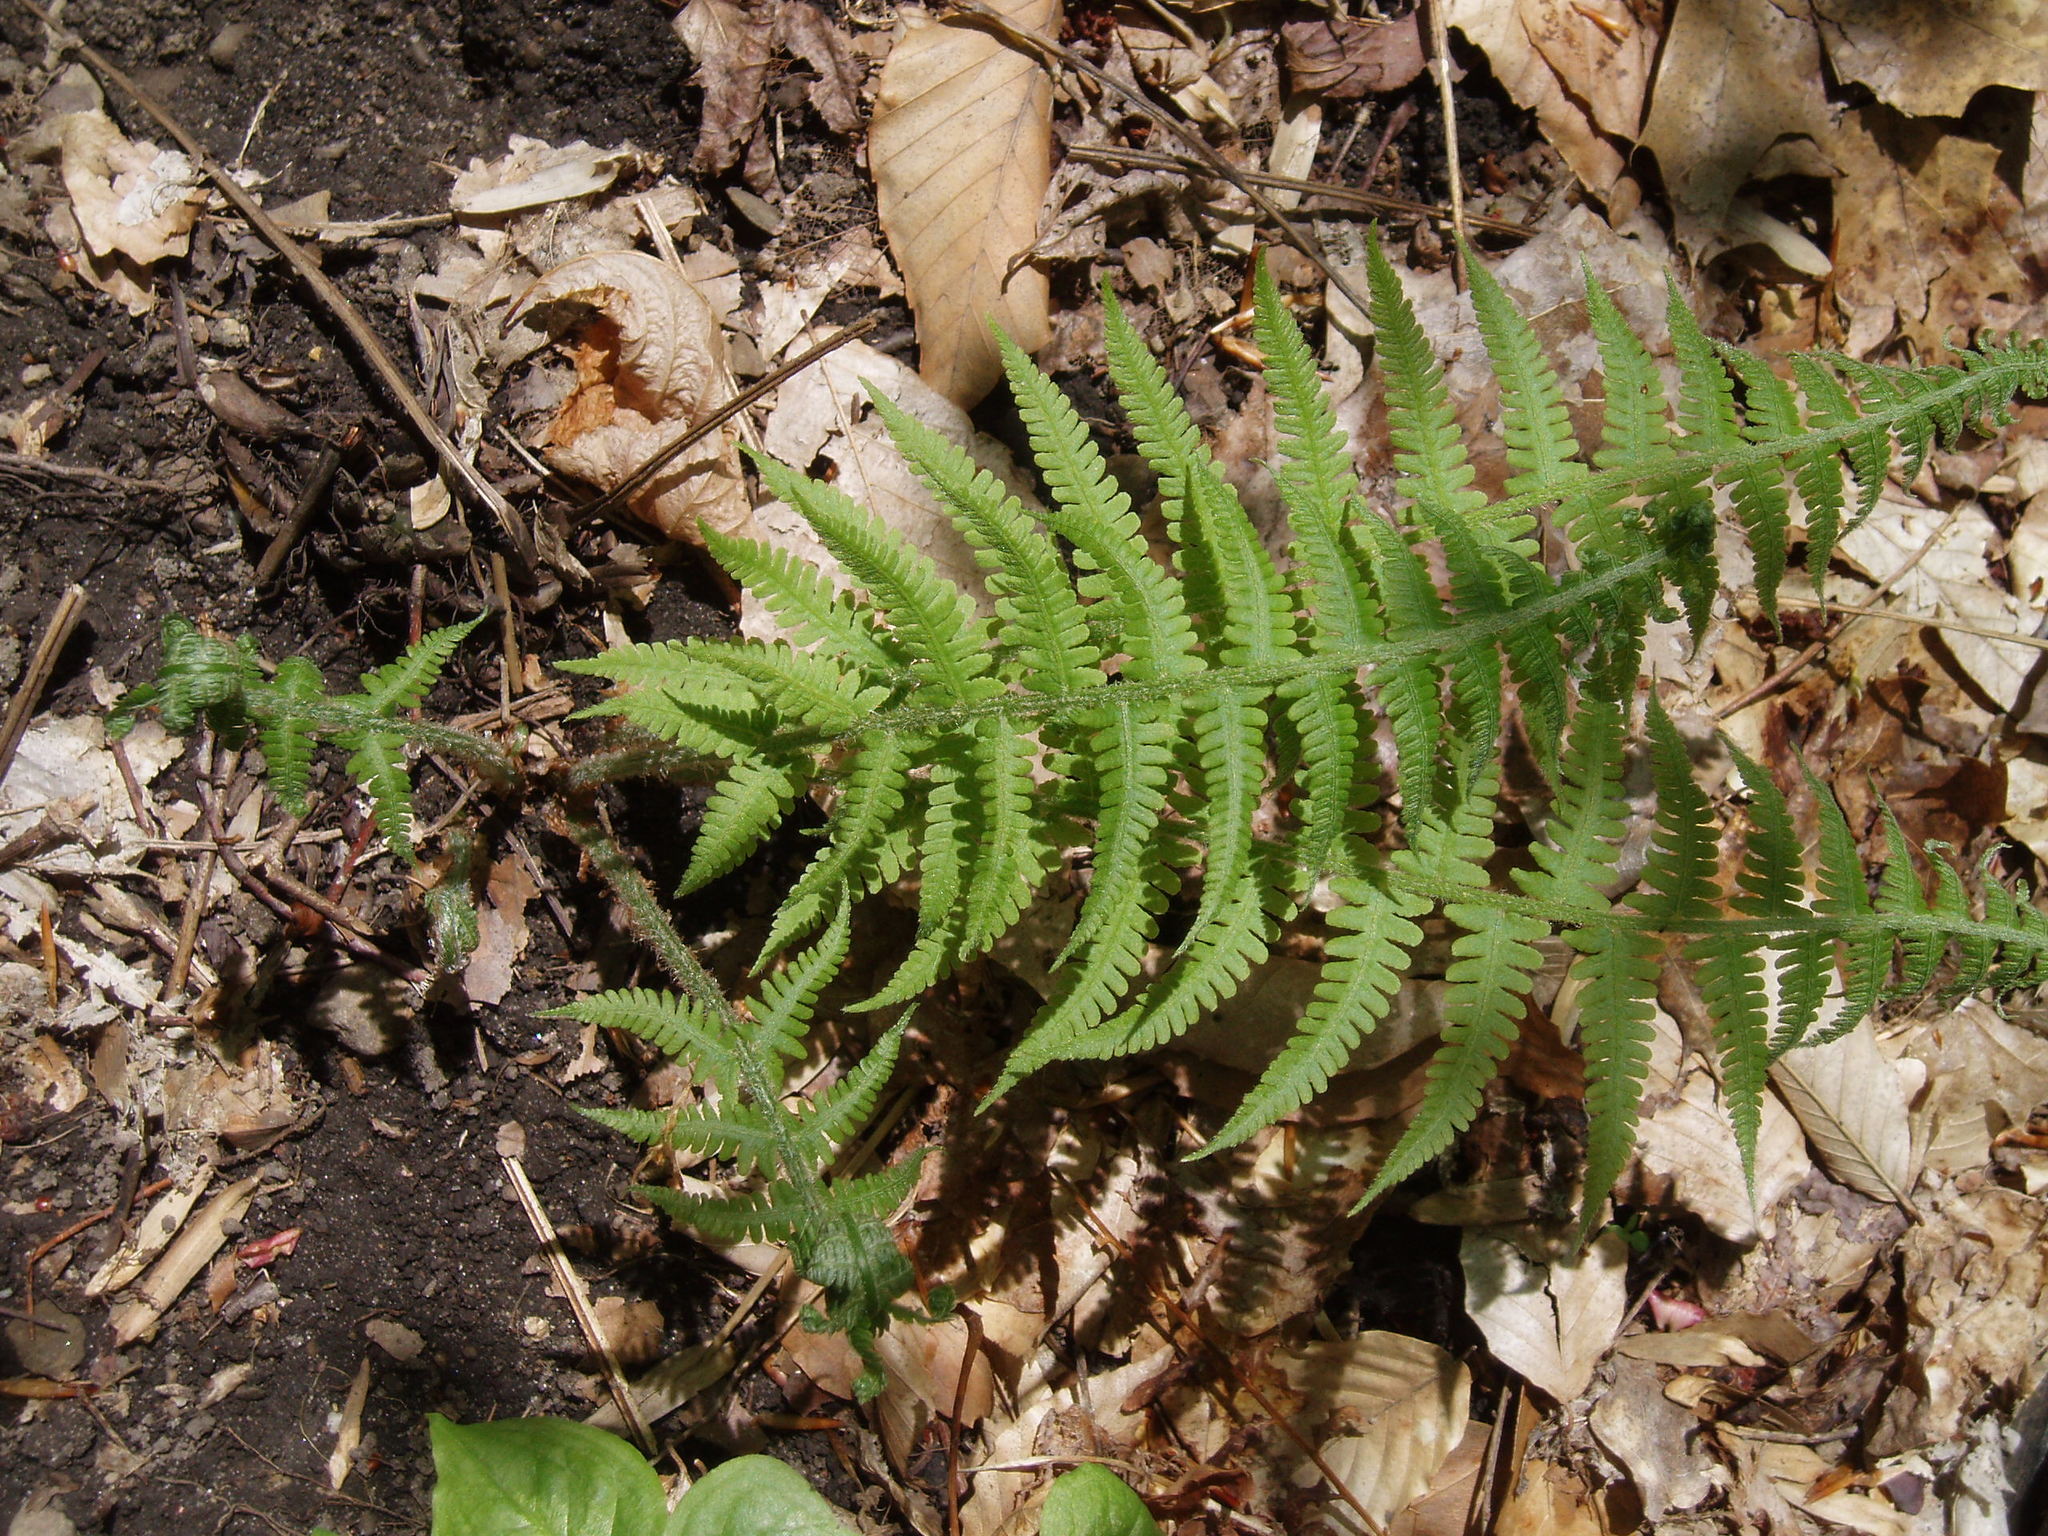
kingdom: Plantae
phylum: Tracheophyta
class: Polypodiopsida
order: Polypodiales
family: Athyriaceae
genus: Deparia
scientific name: Deparia acrostichoides
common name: Silver false spleenwort
